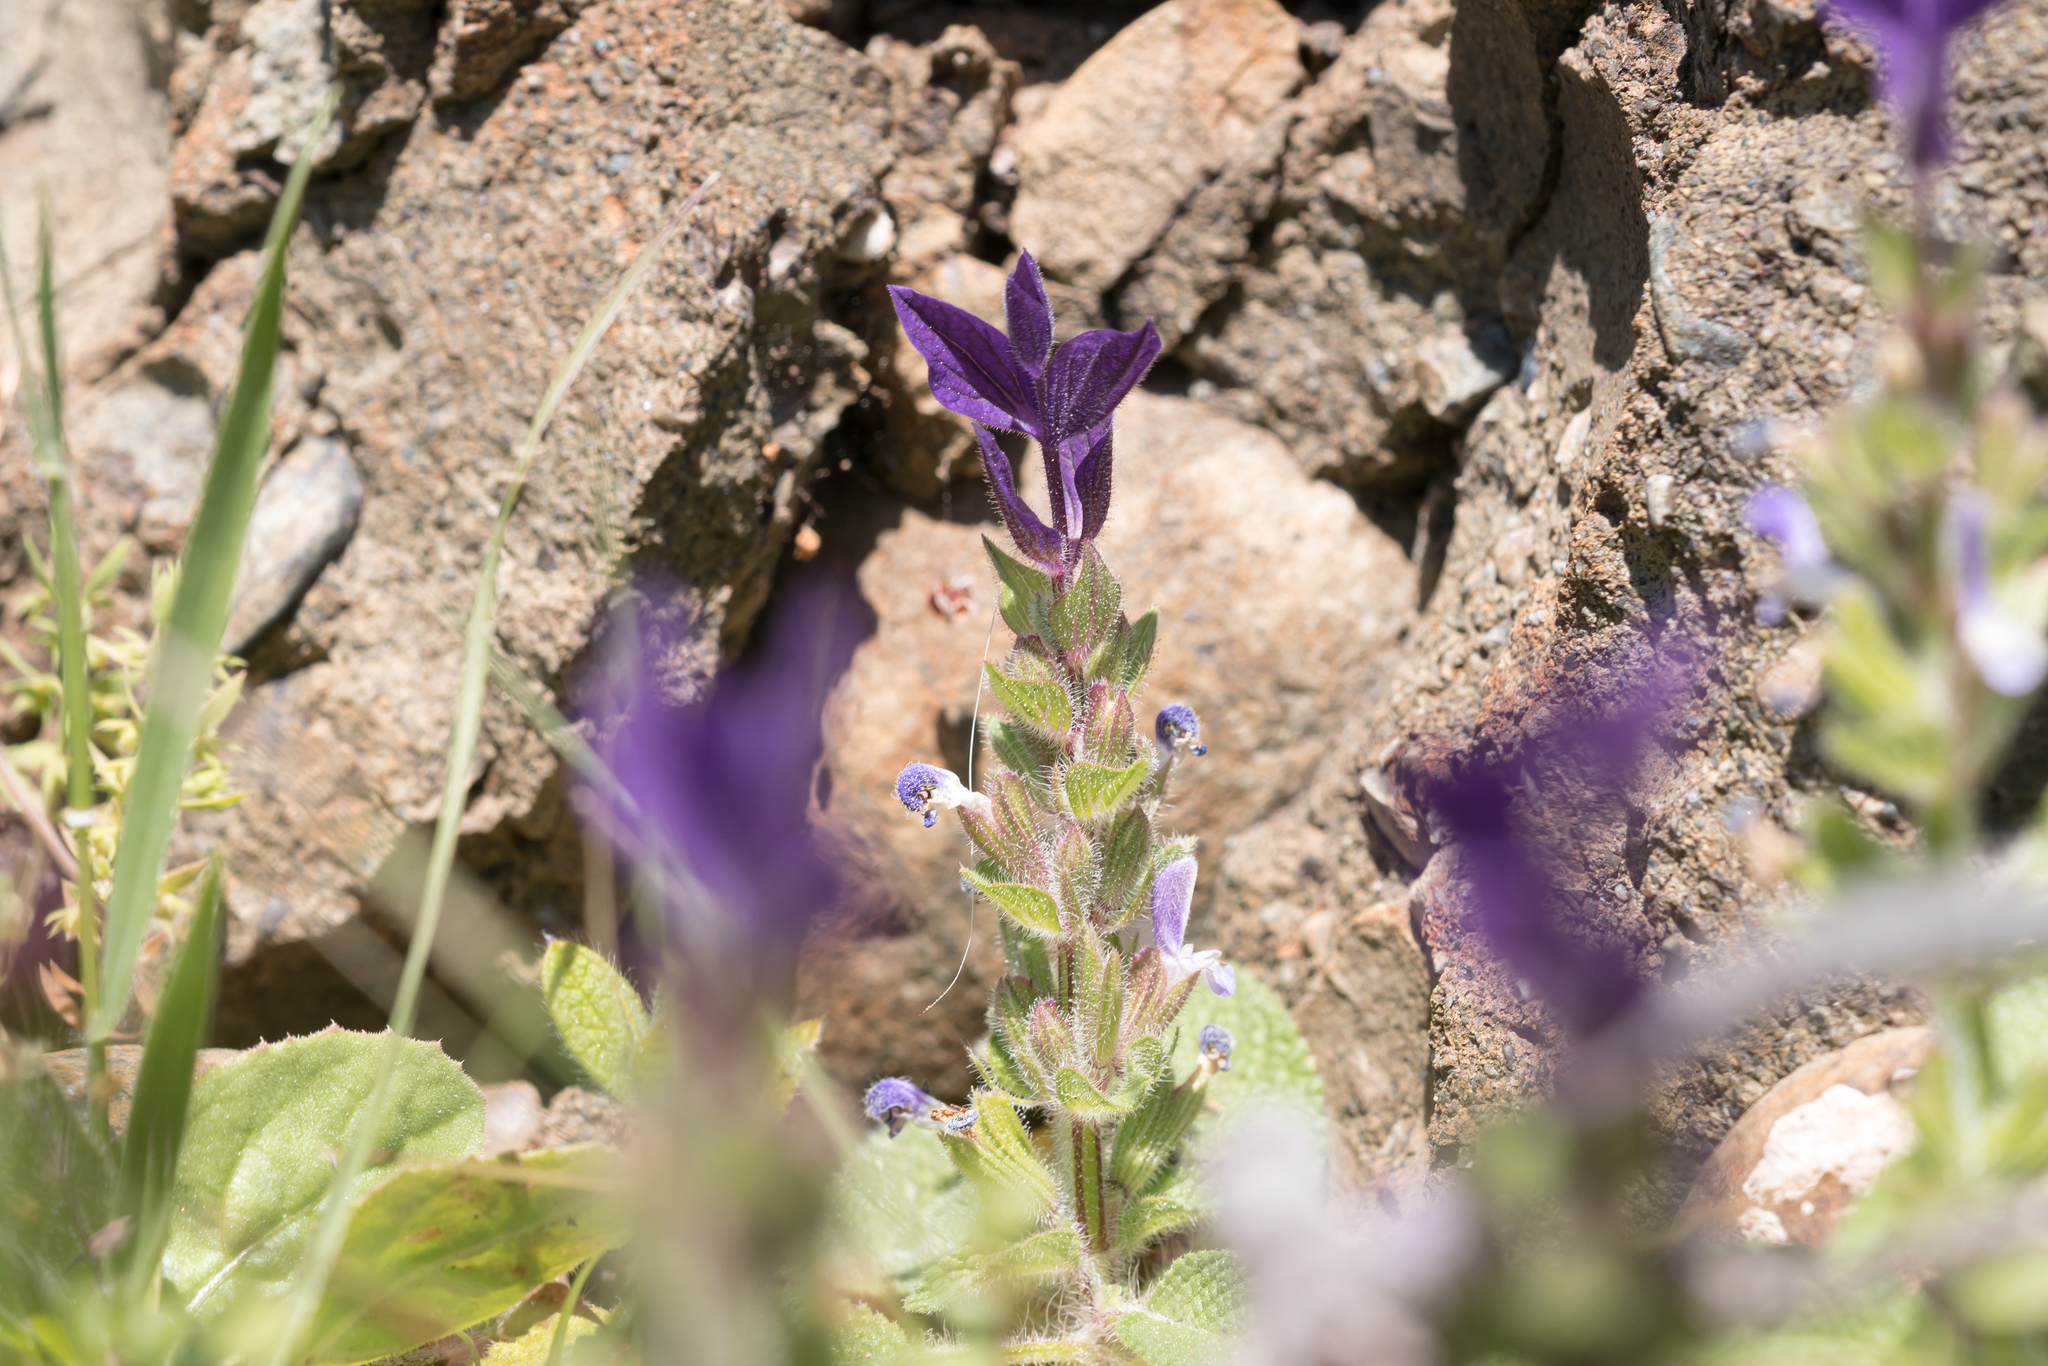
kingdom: Plantae
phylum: Tracheophyta
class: Magnoliopsida
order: Lamiales
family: Lamiaceae
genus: Salvia
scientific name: Salvia viridis
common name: Annual clary
